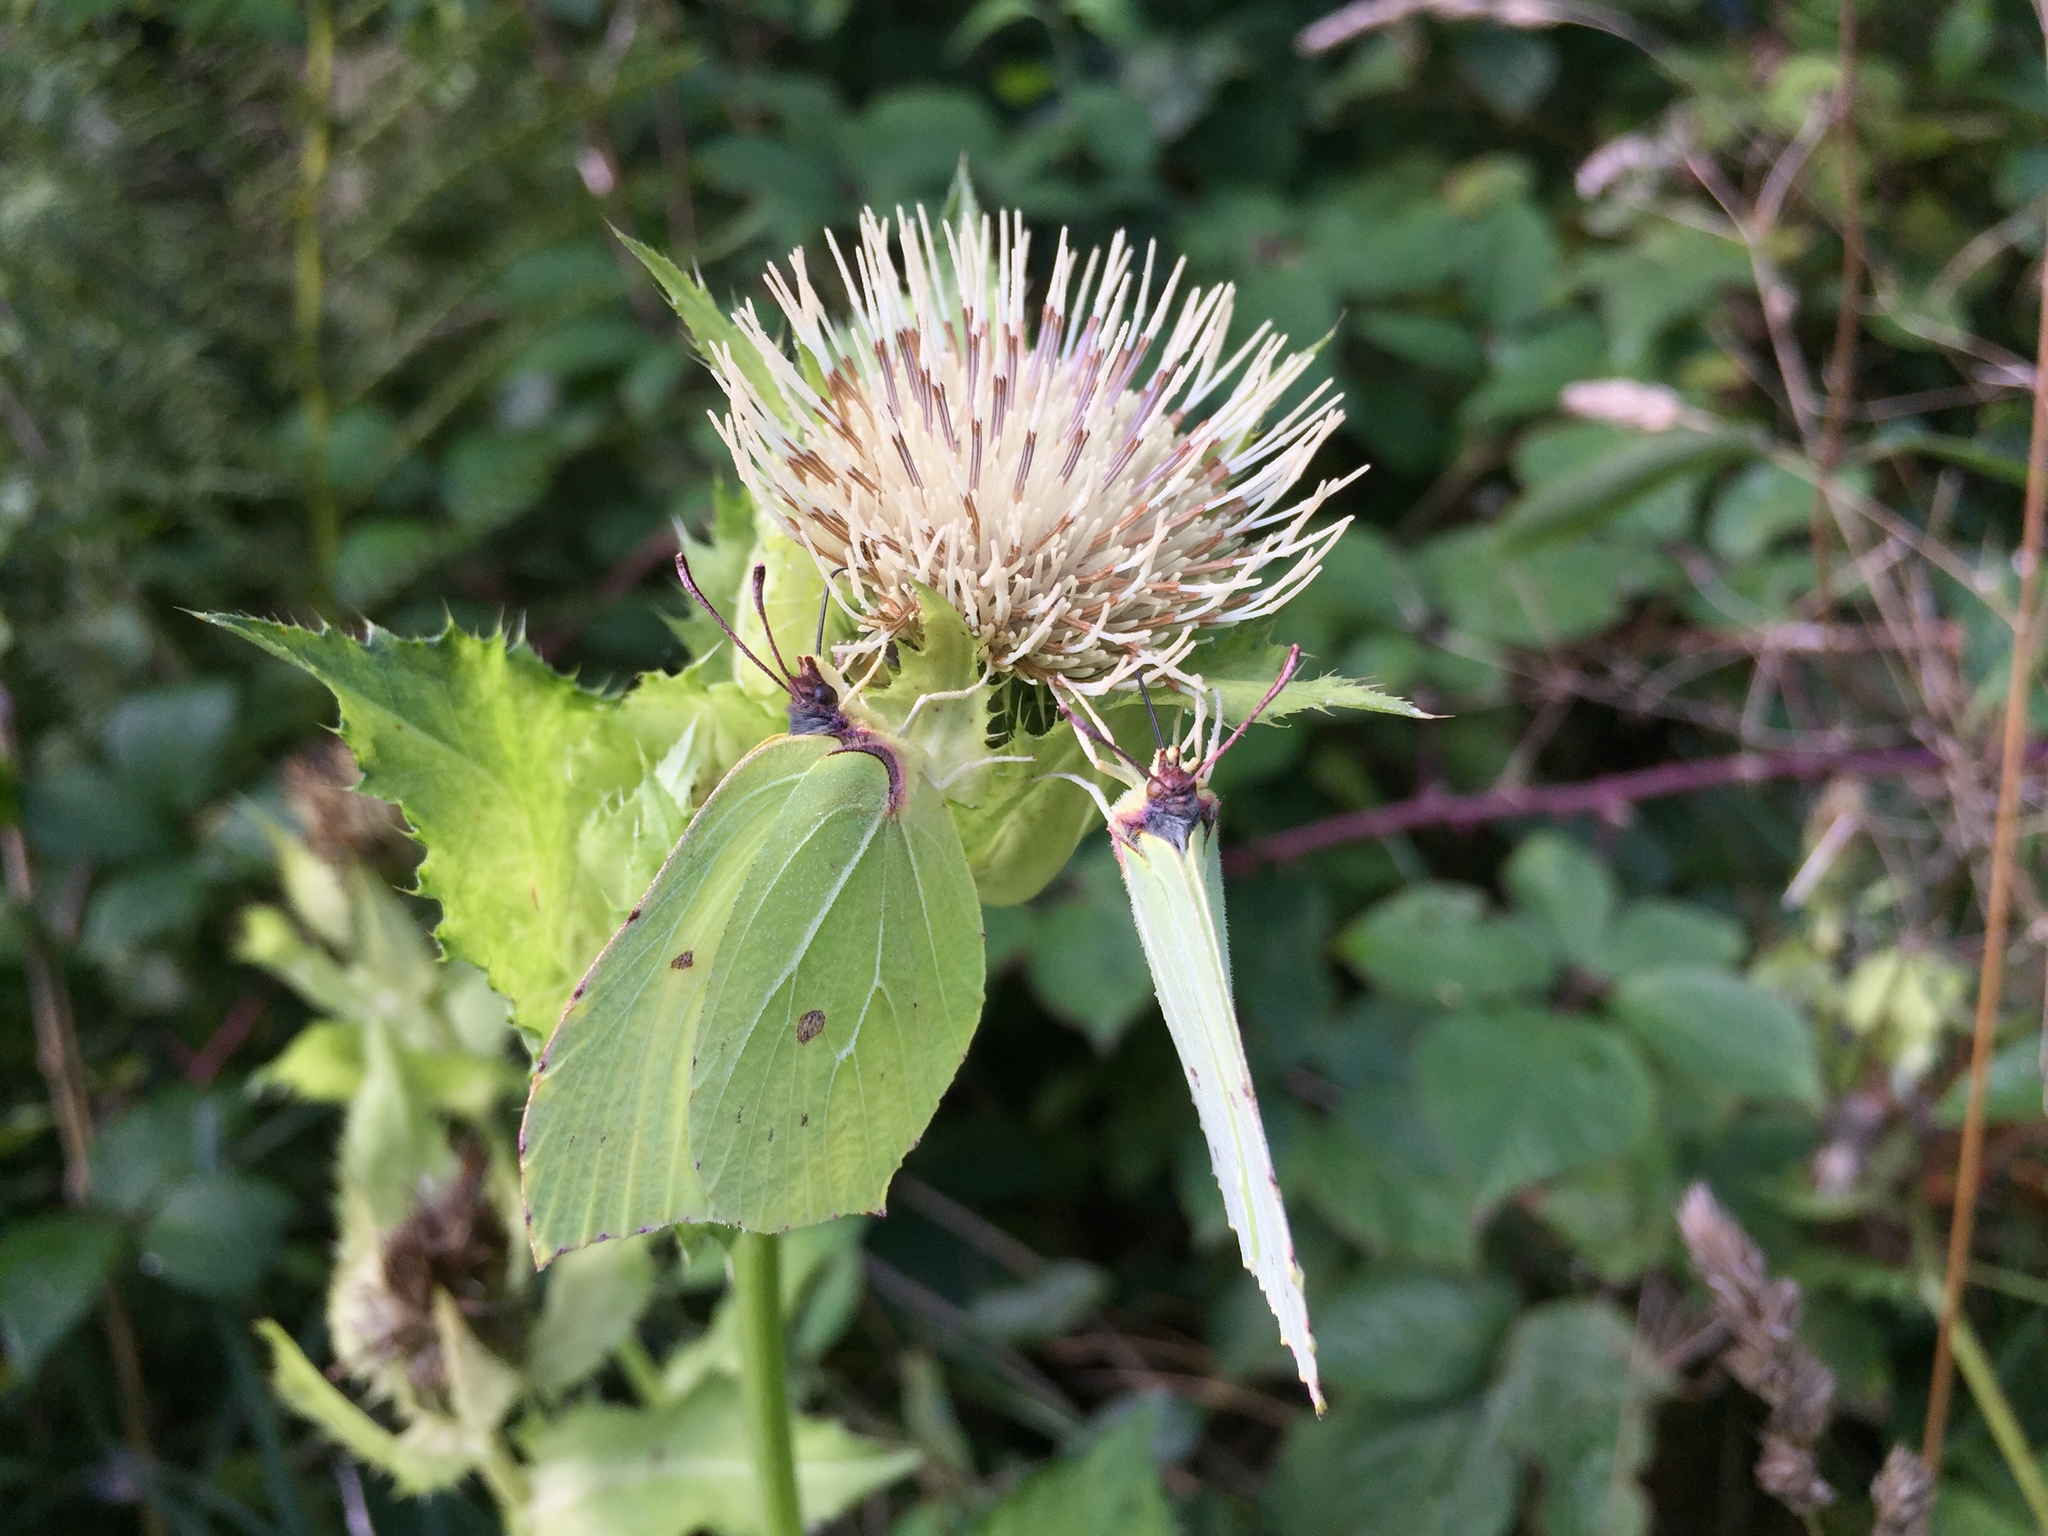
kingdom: Animalia
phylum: Arthropoda
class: Insecta
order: Lepidoptera
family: Pieridae
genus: Gonepteryx
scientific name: Gonepteryx rhamni
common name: Brimstone
